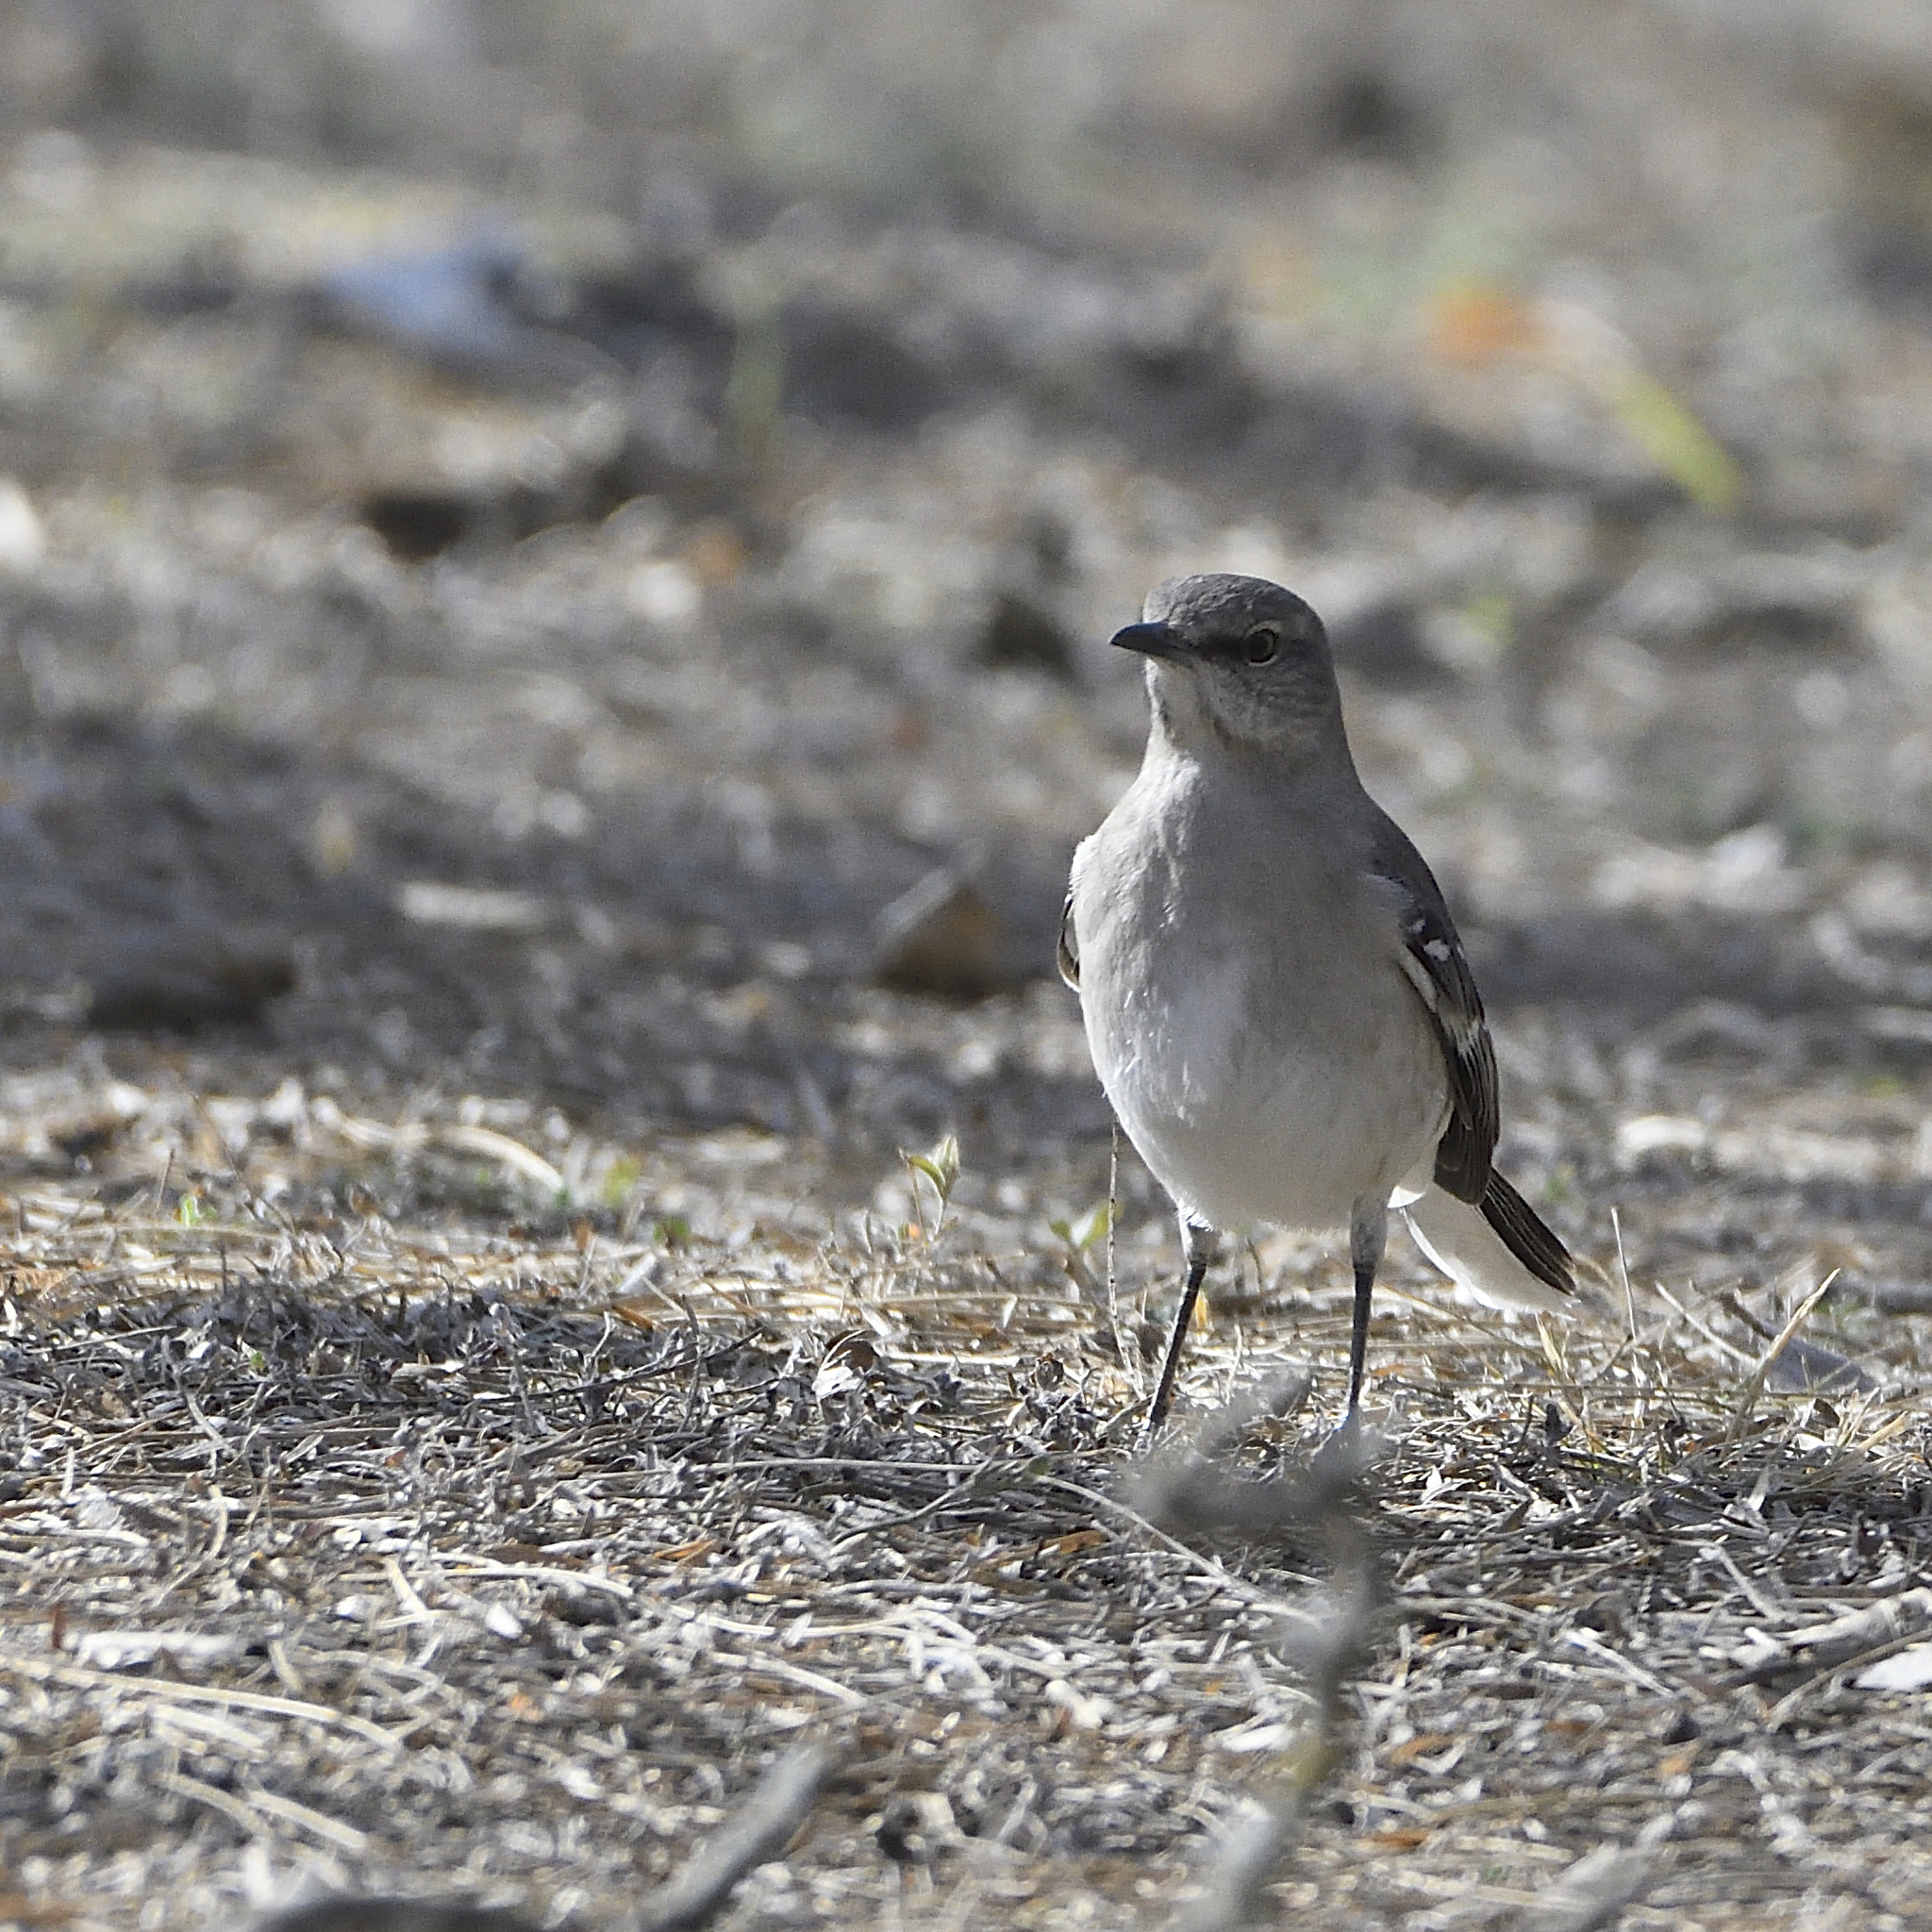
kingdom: Animalia
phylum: Chordata
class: Aves
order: Passeriformes
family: Mimidae
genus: Mimus
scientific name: Mimus polyglottos
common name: Northern mockingbird
